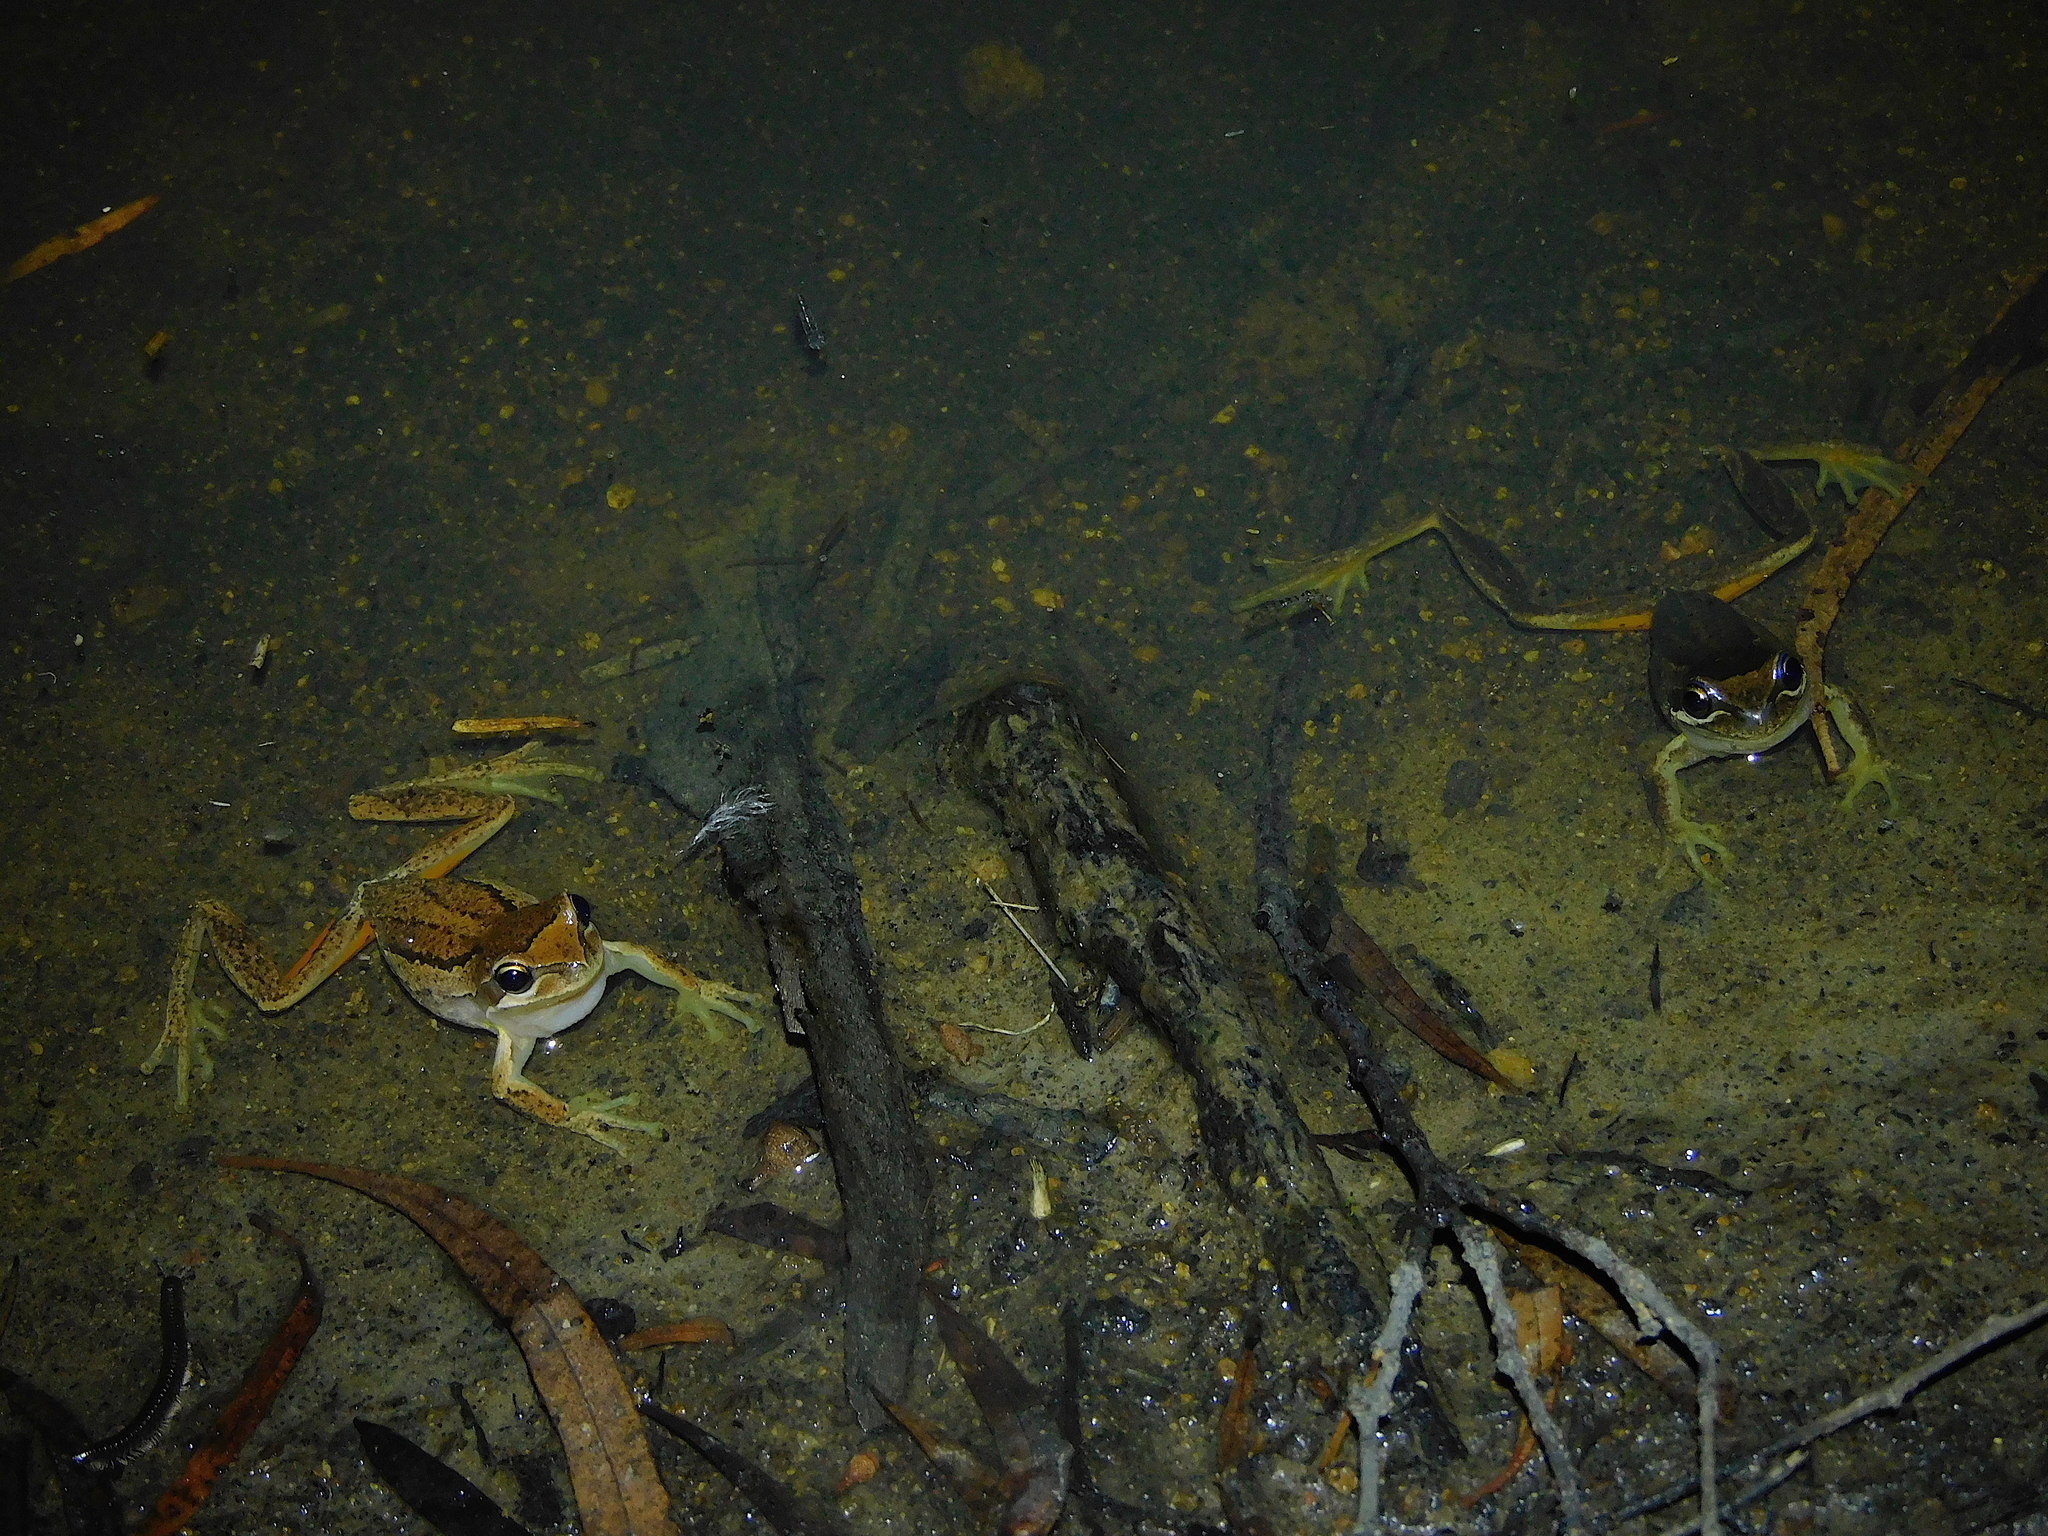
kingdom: Animalia
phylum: Chordata
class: Amphibia
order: Anura
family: Pelodryadidae
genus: Litoria
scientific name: Litoria ewingii
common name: Southern brown tree frog
